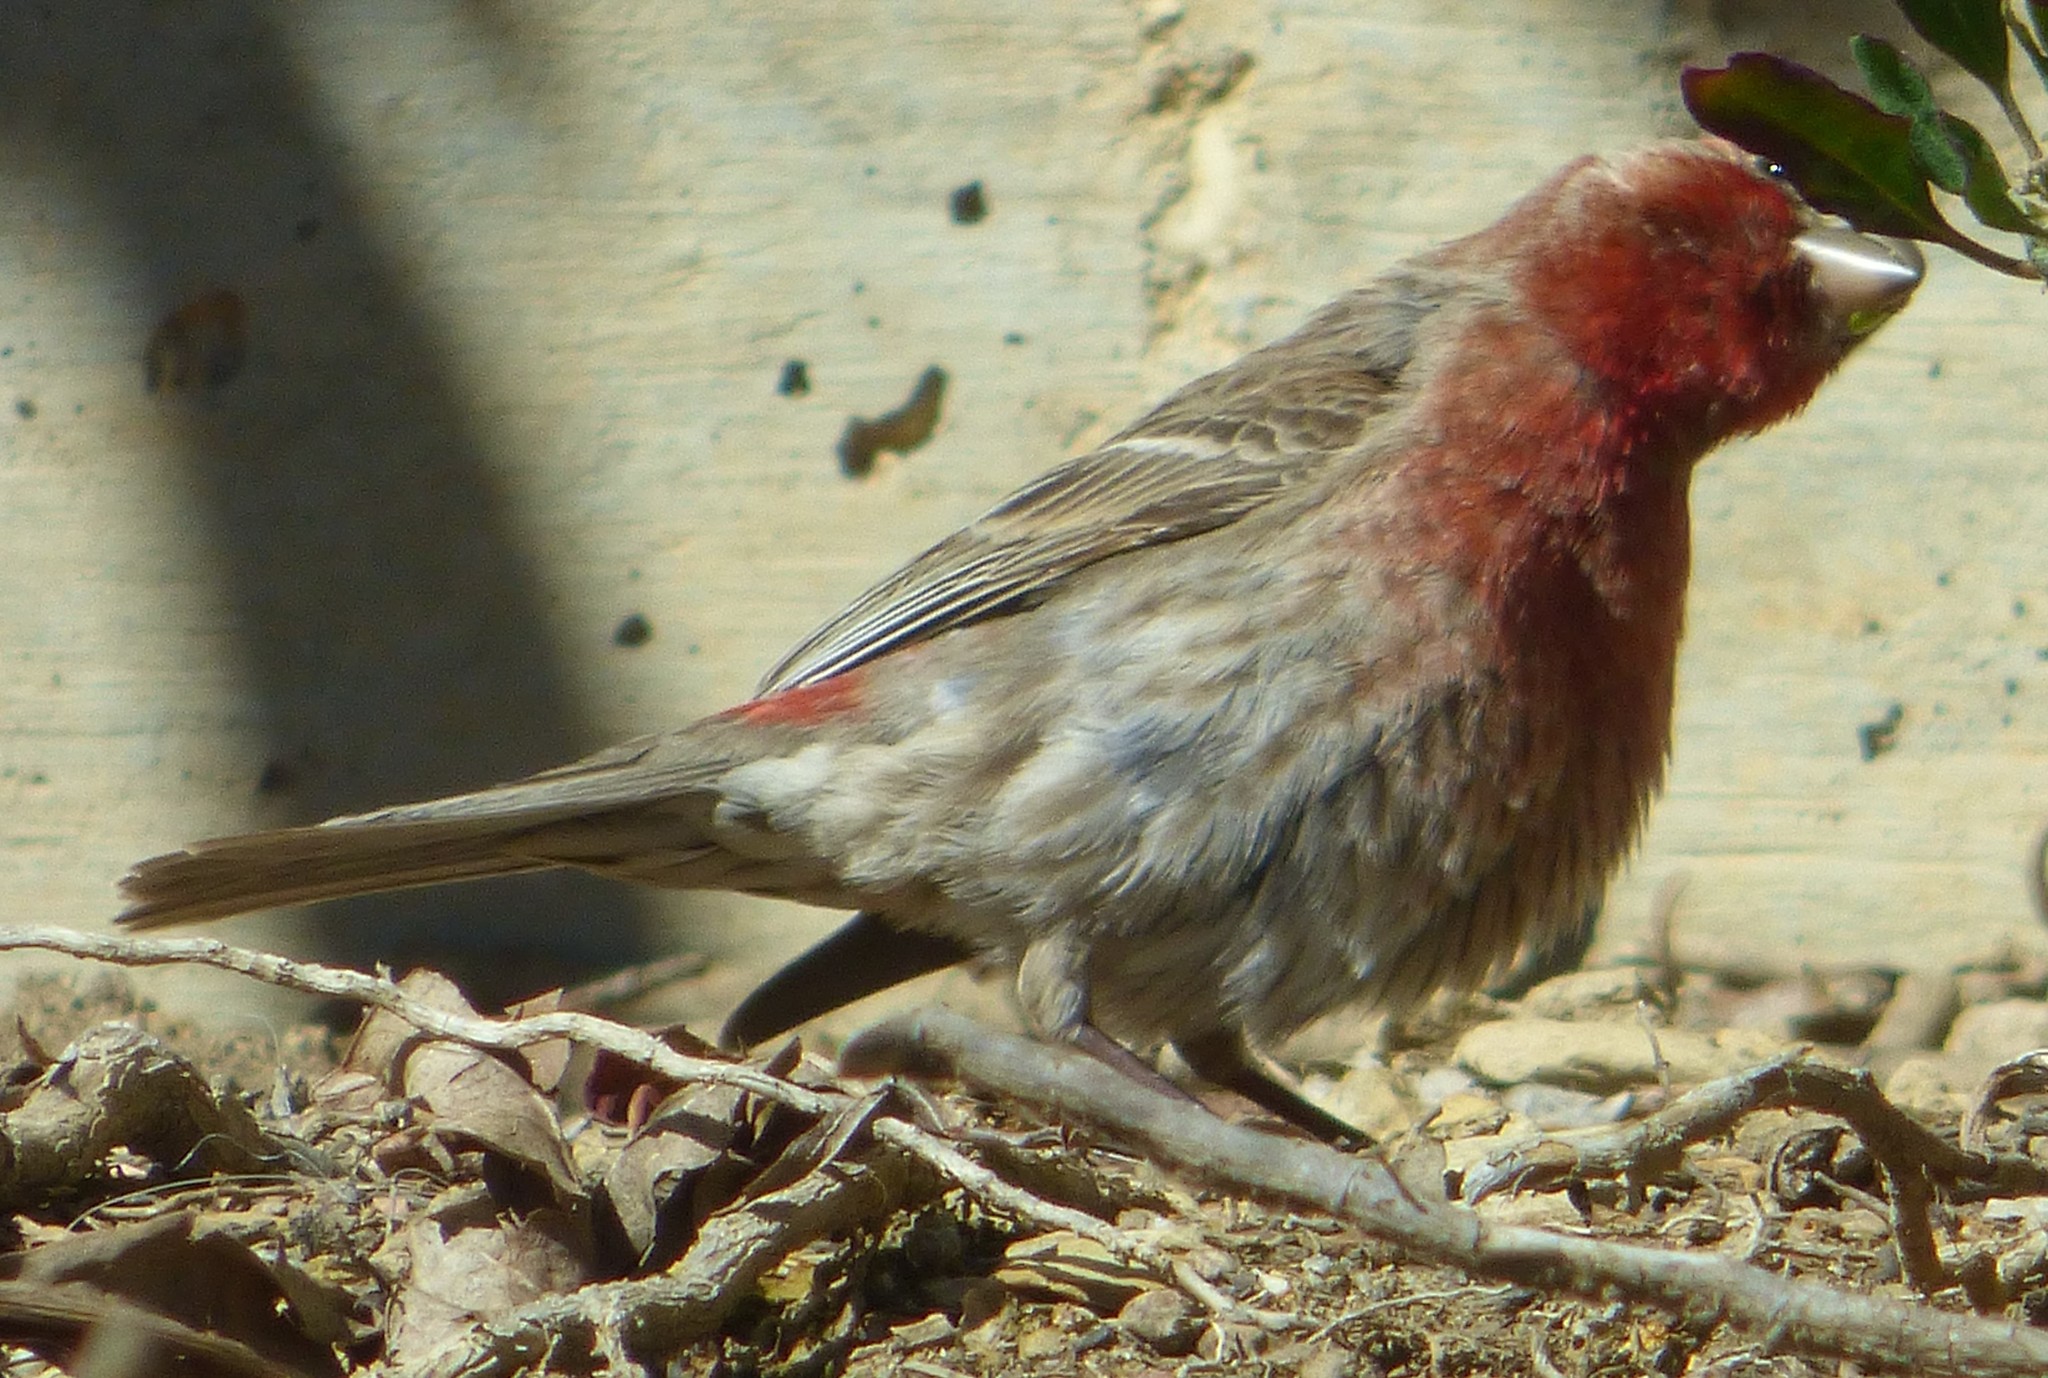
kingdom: Animalia
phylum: Chordata
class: Aves
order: Passeriformes
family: Fringillidae
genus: Haemorhous
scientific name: Haemorhous mexicanus
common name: House finch
